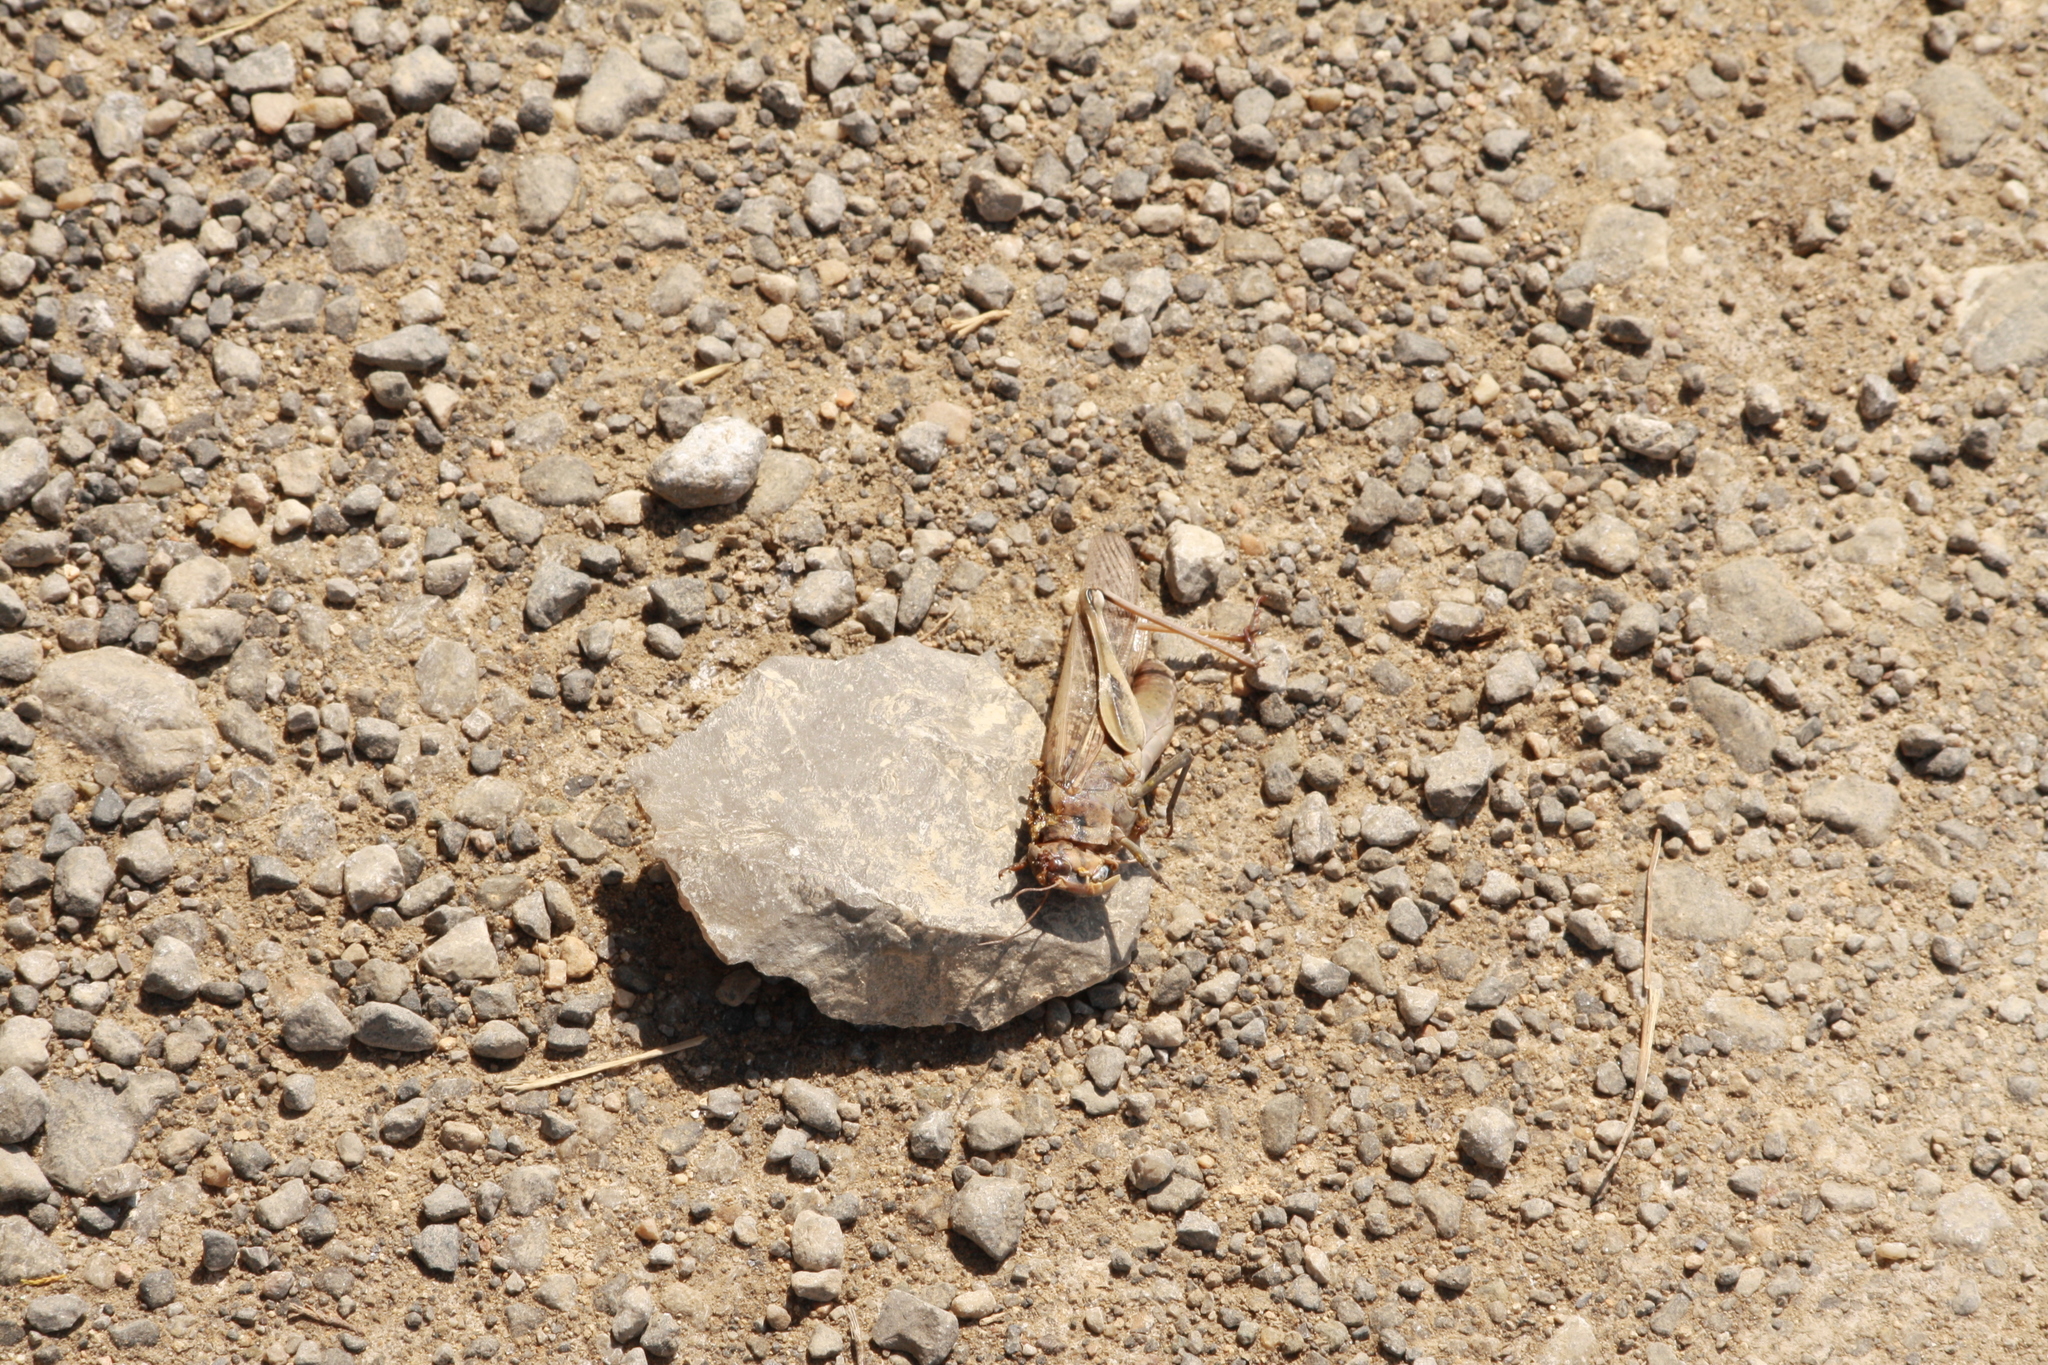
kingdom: Animalia
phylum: Arthropoda
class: Insecta
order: Orthoptera
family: Acrididae
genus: Locusta
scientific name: Locusta migratoria
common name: Migratory locust
